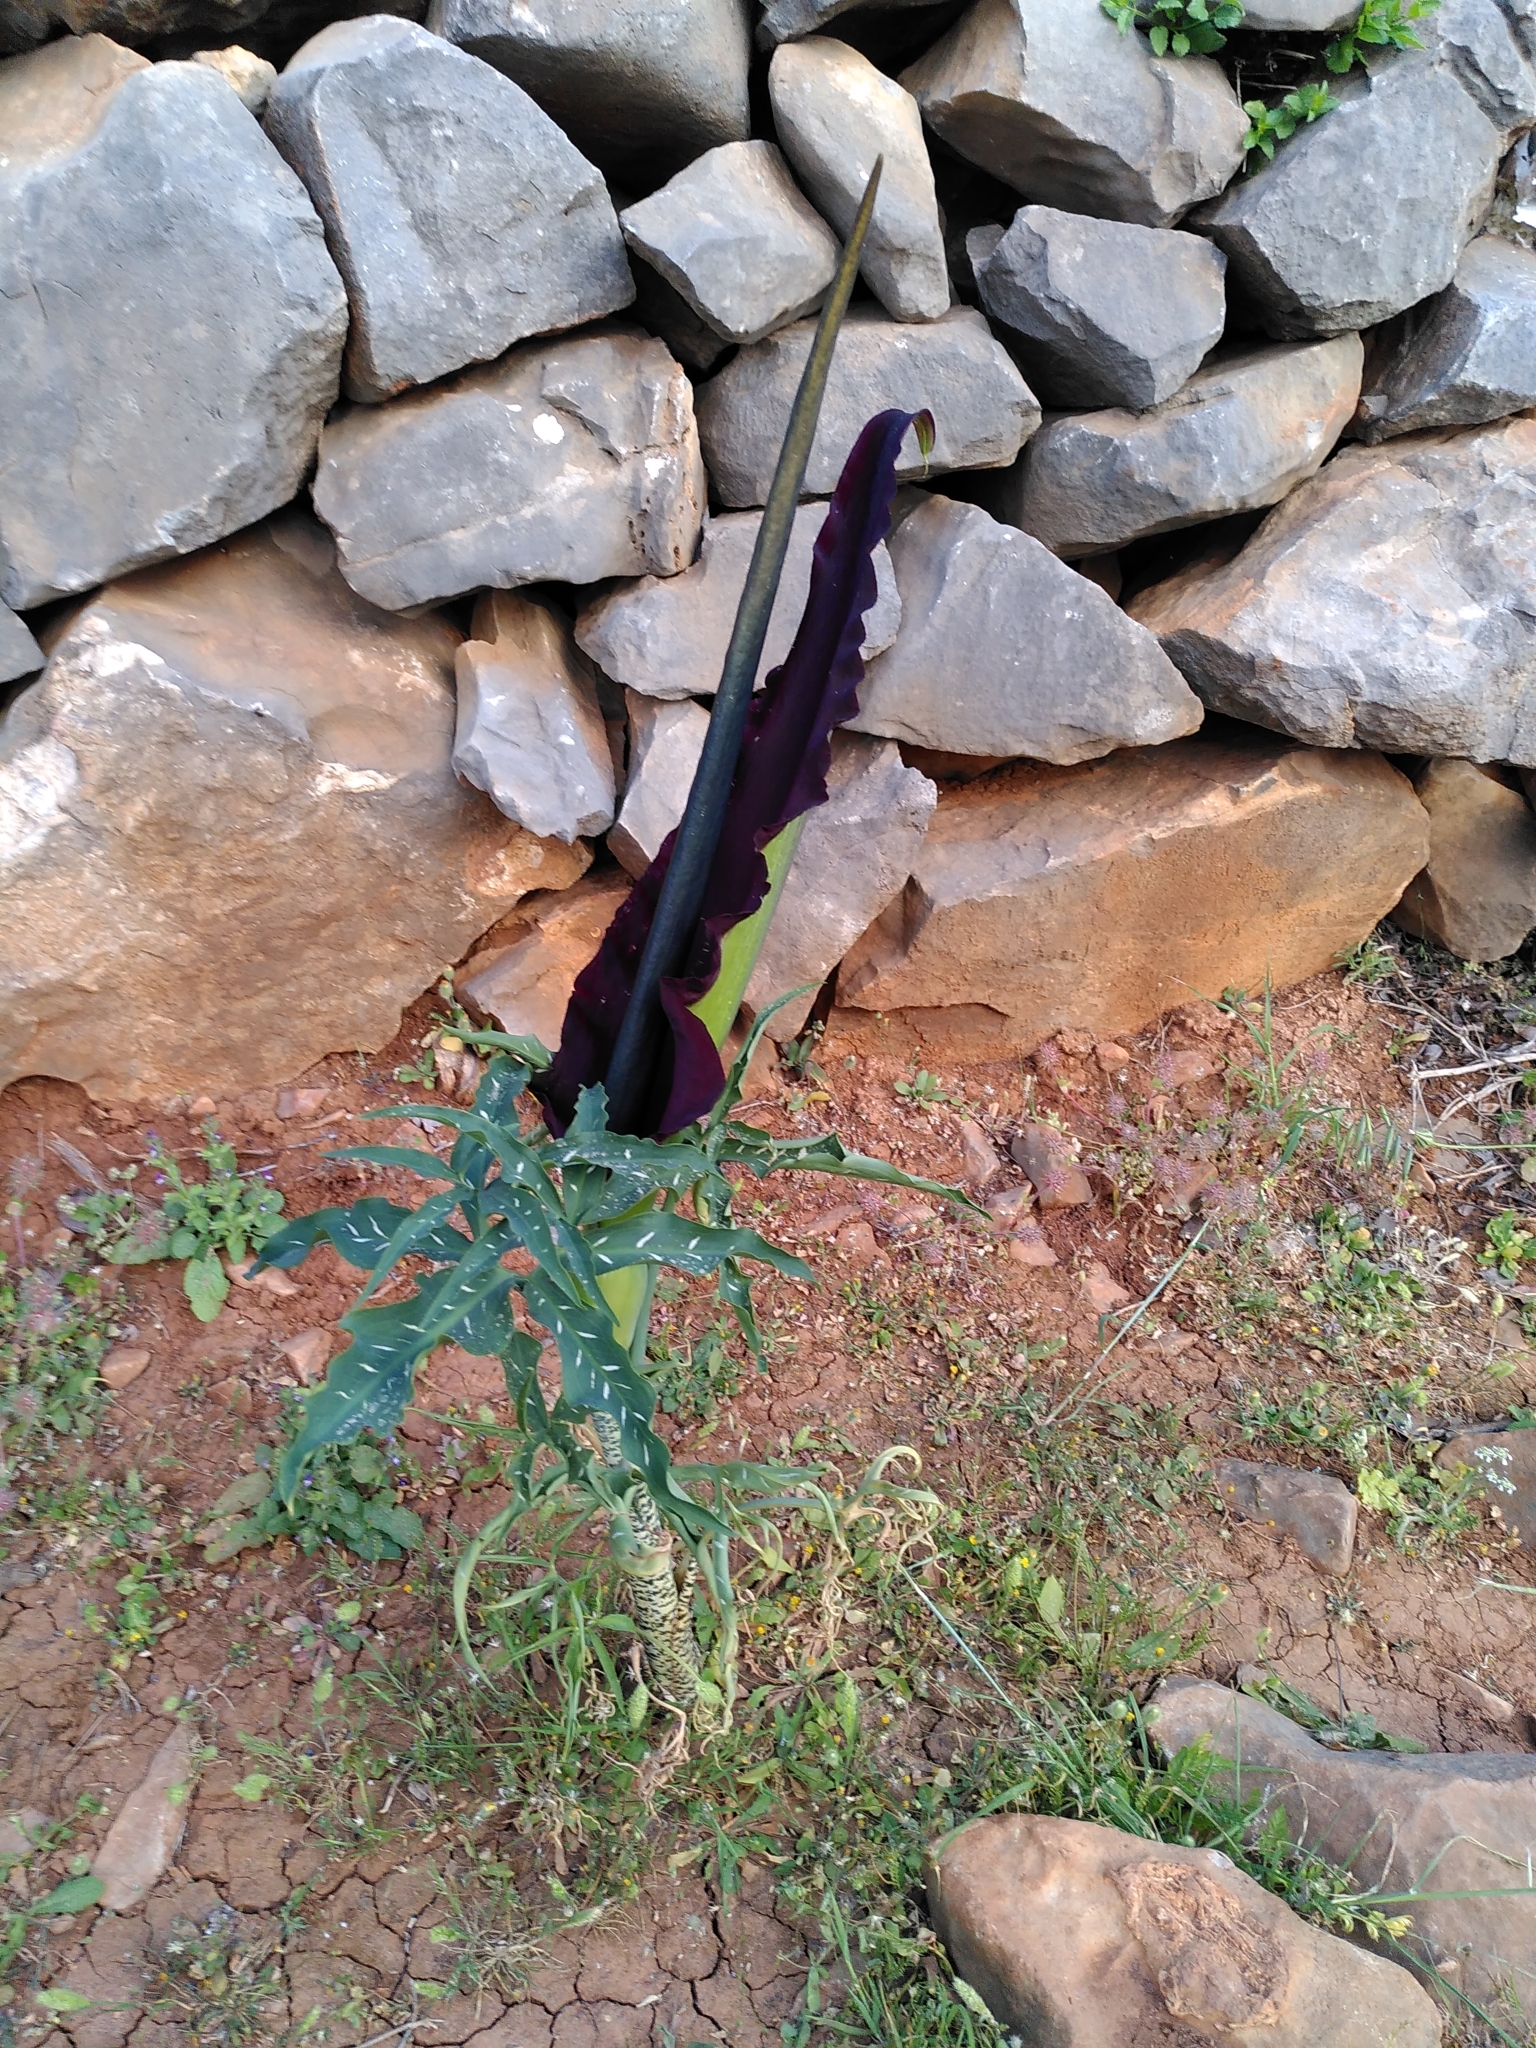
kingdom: Plantae
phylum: Tracheophyta
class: Liliopsida
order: Alismatales
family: Araceae
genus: Dracunculus
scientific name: Dracunculus vulgaris
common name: Dragon arum
